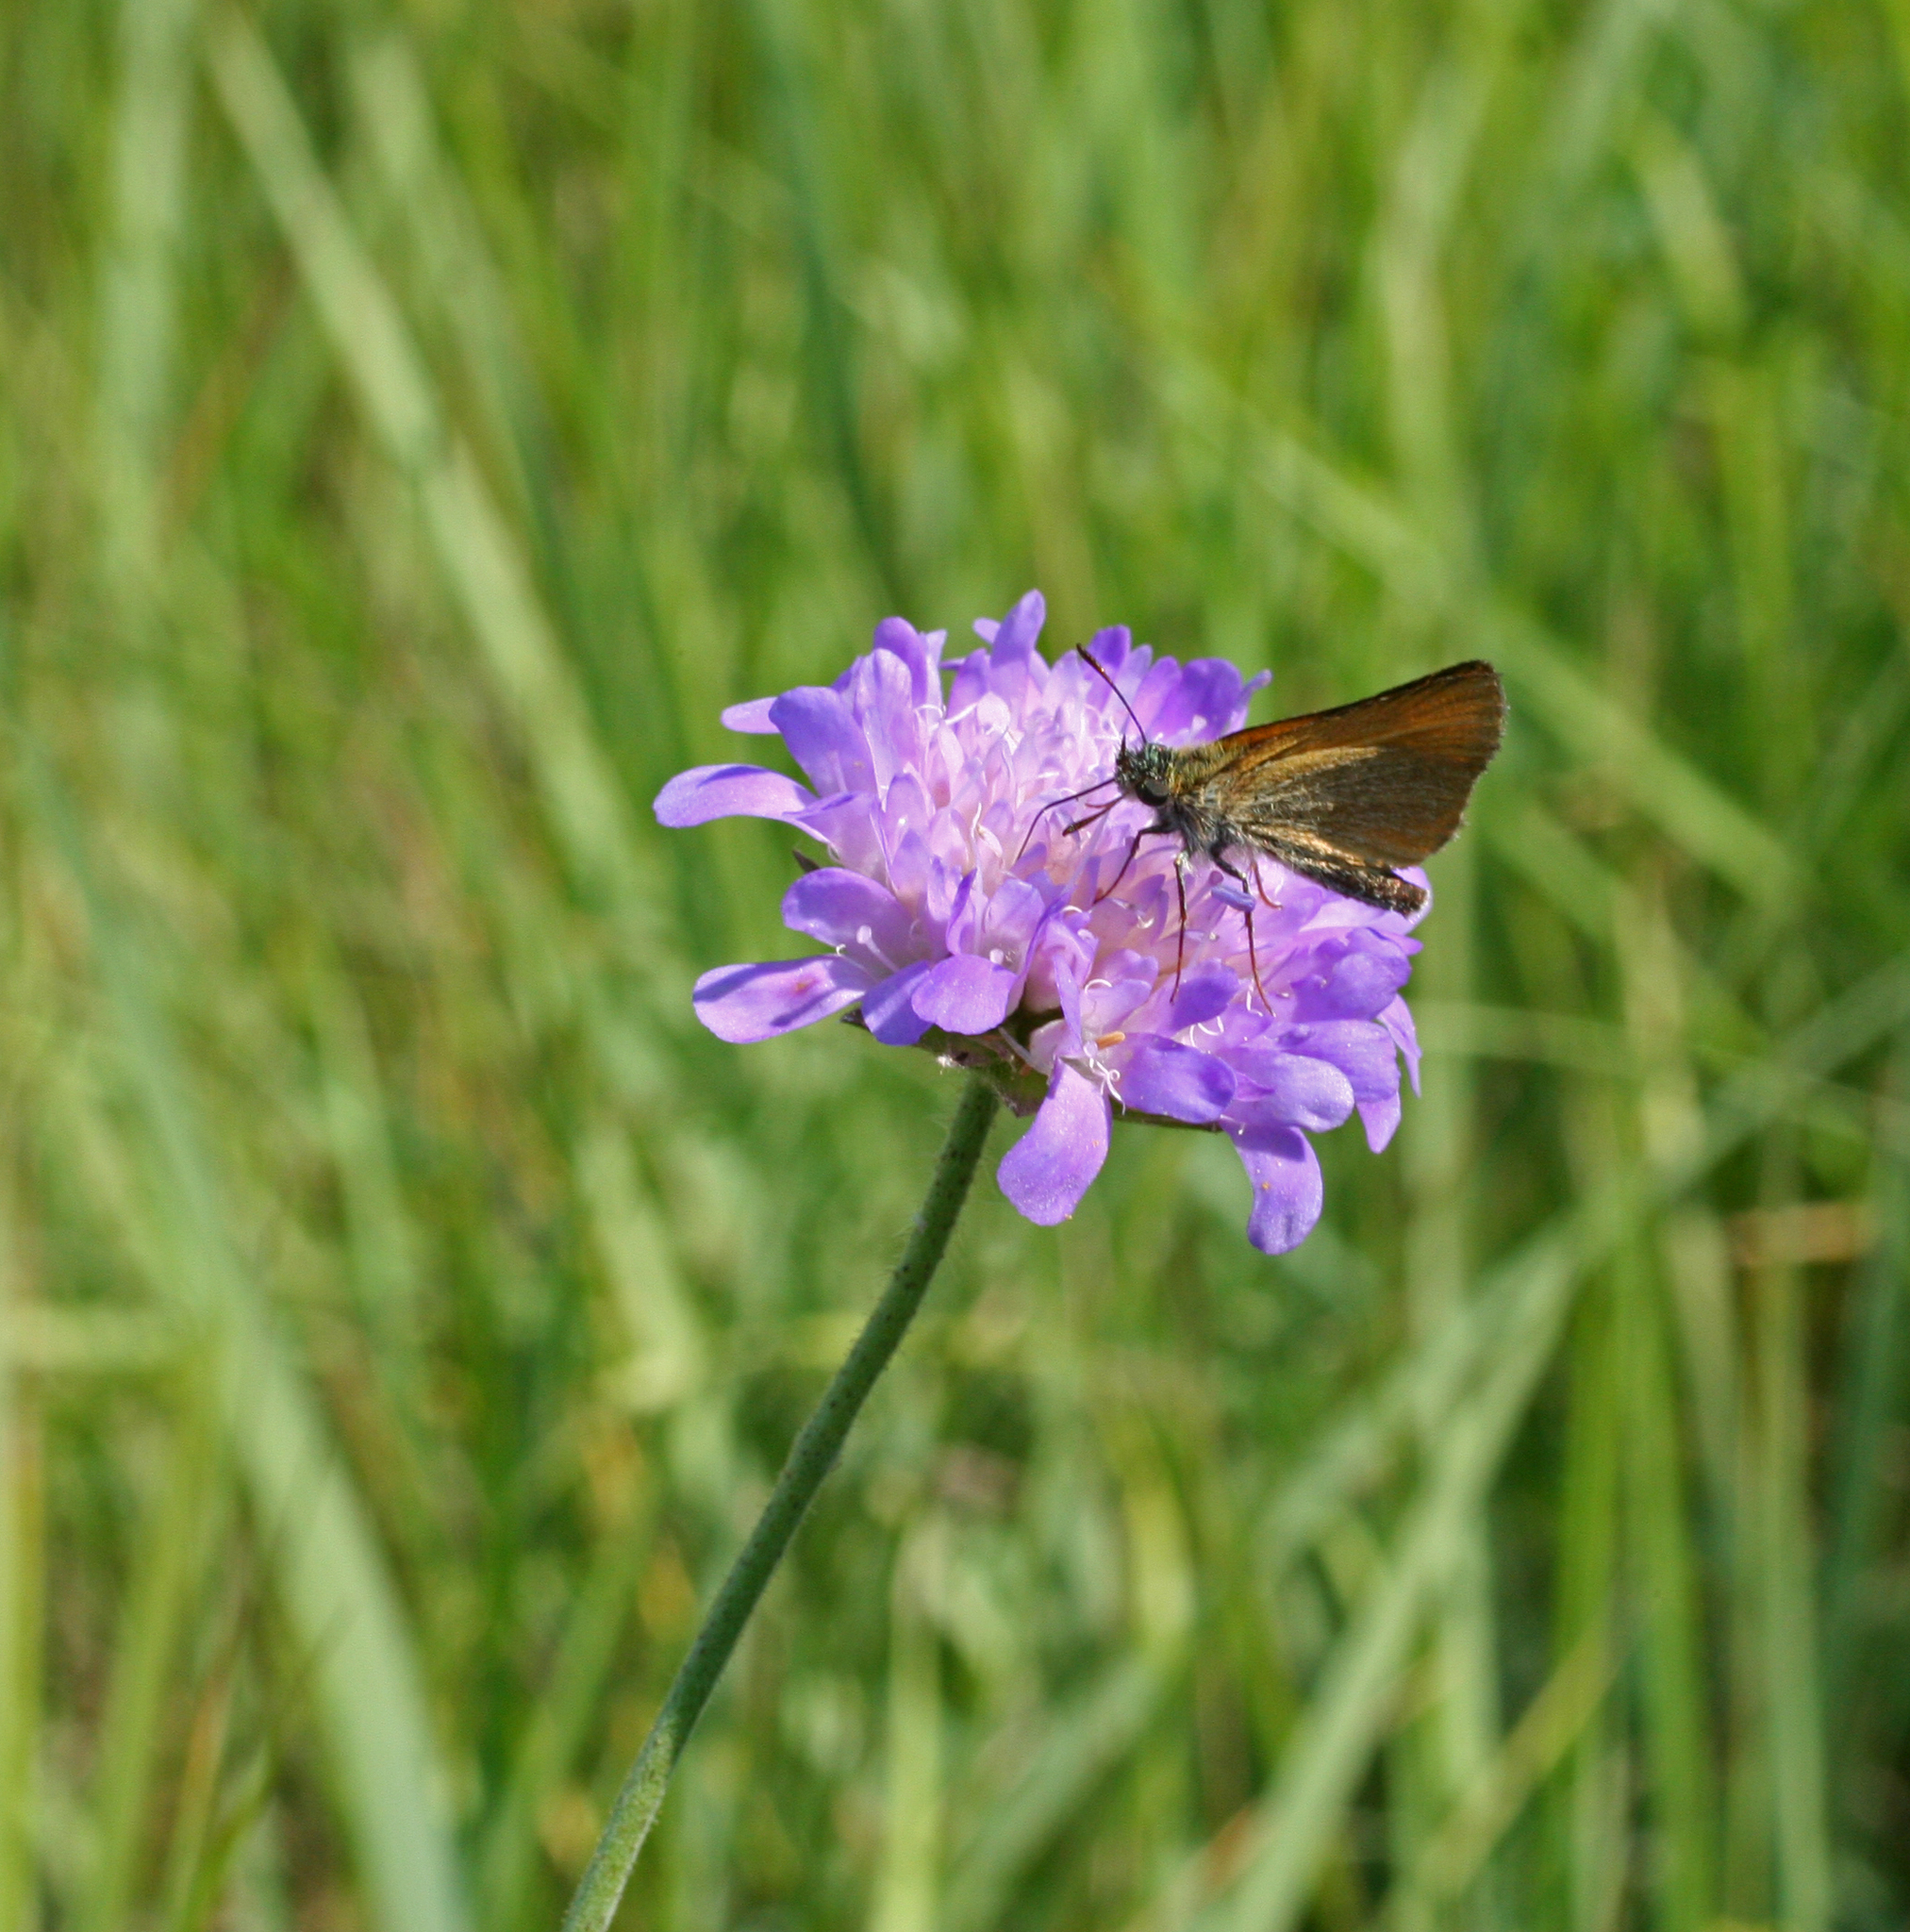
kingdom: Animalia
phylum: Arthropoda
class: Insecta
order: Lepidoptera
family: Hesperiidae
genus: Thymelicus
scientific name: Thymelicus lineola
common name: Essex skipper
